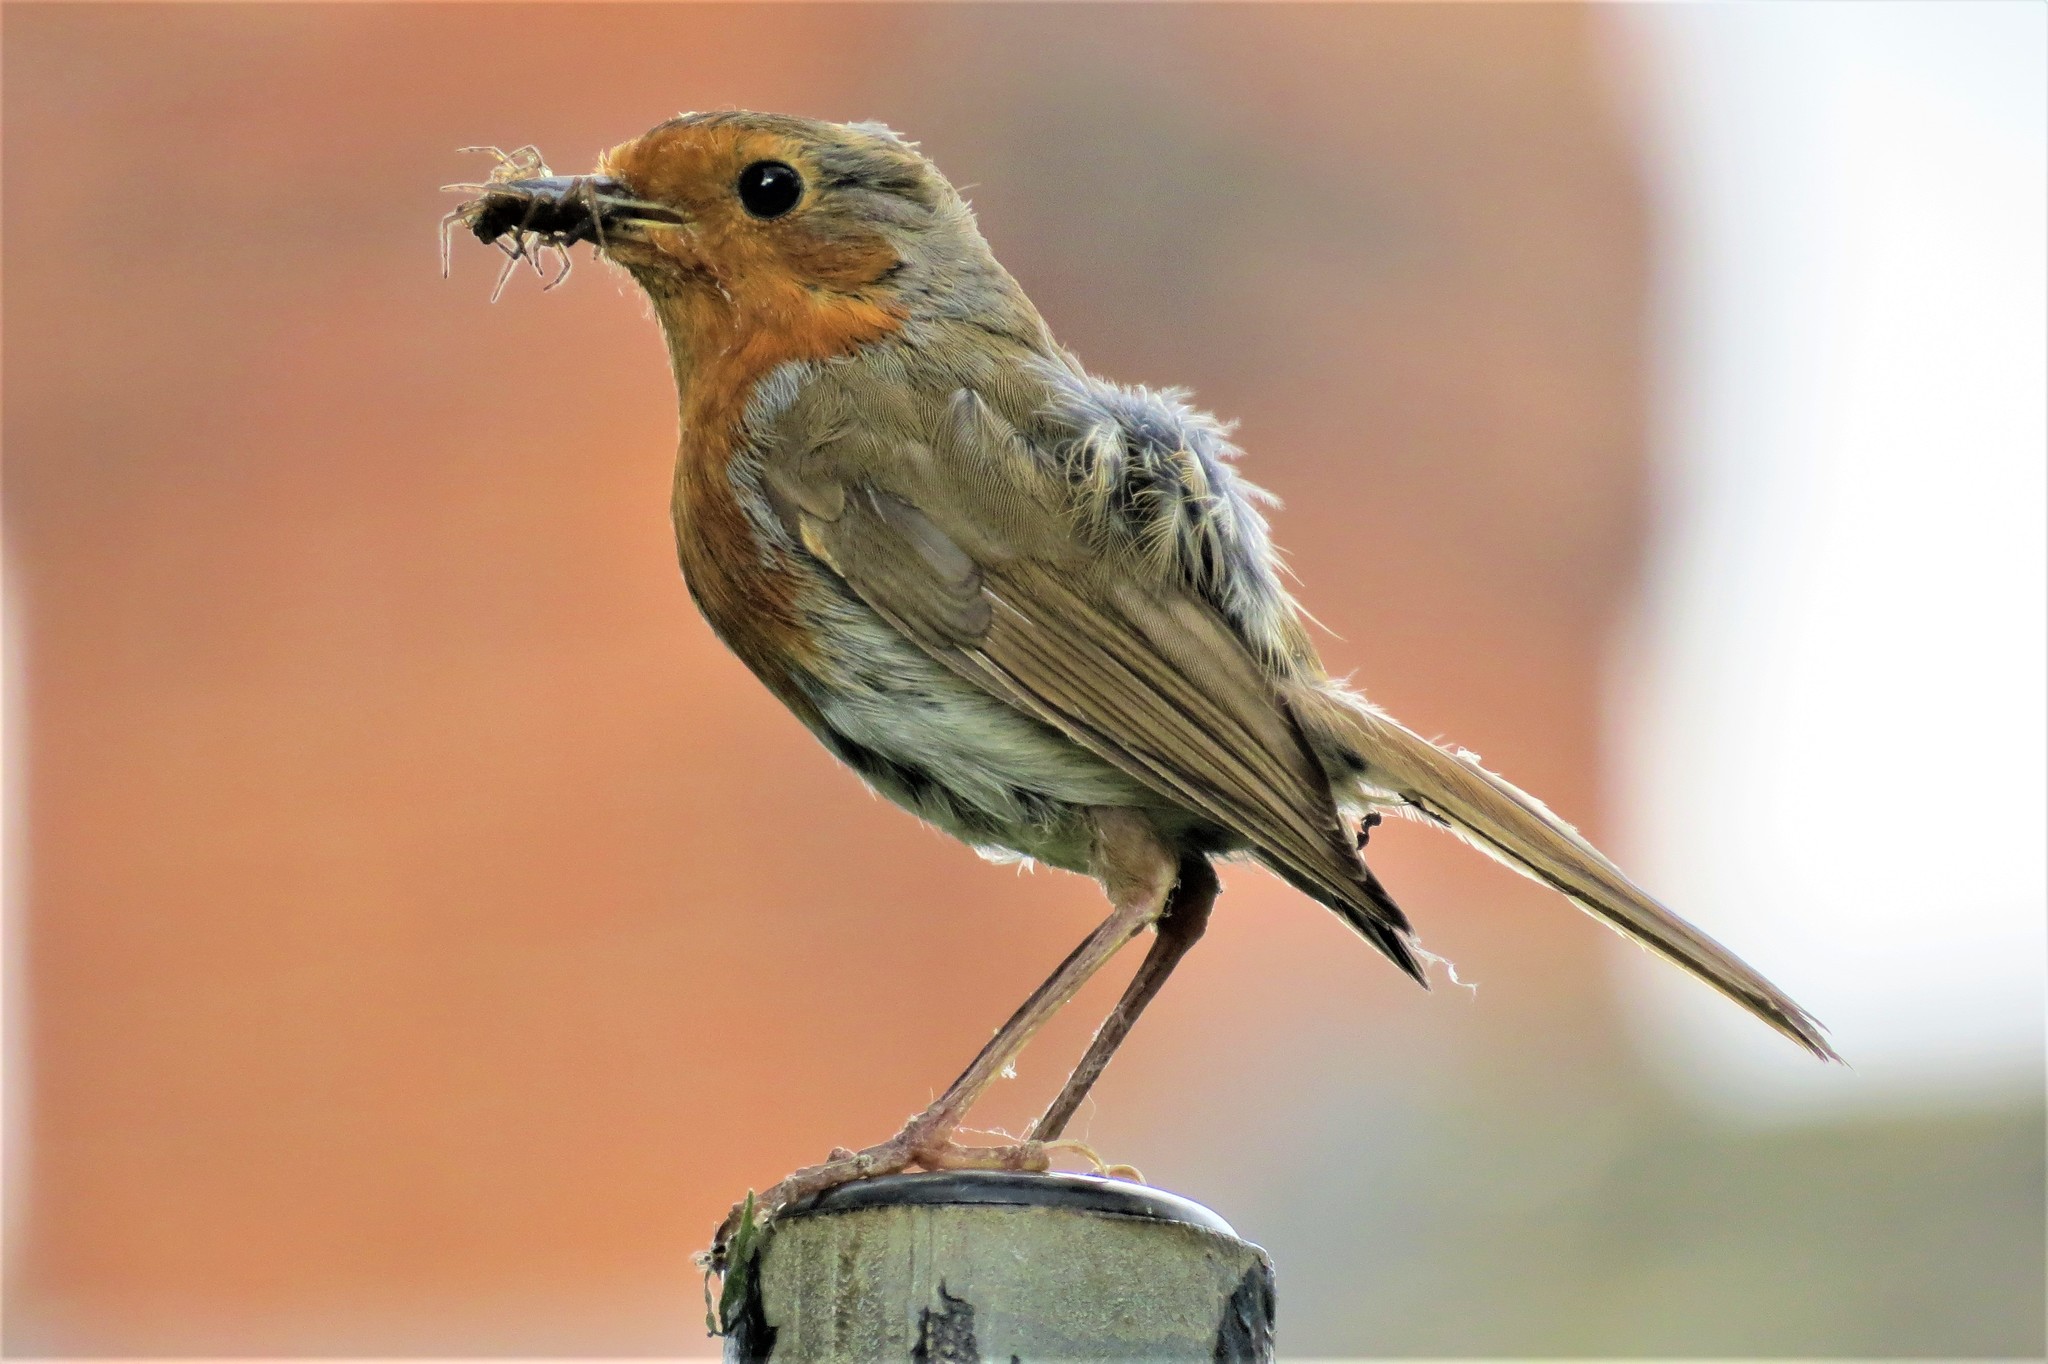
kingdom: Animalia
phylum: Chordata
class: Aves
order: Passeriformes
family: Muscicapidae
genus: Erithacus
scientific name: Erithacus rubecula
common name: European robin
